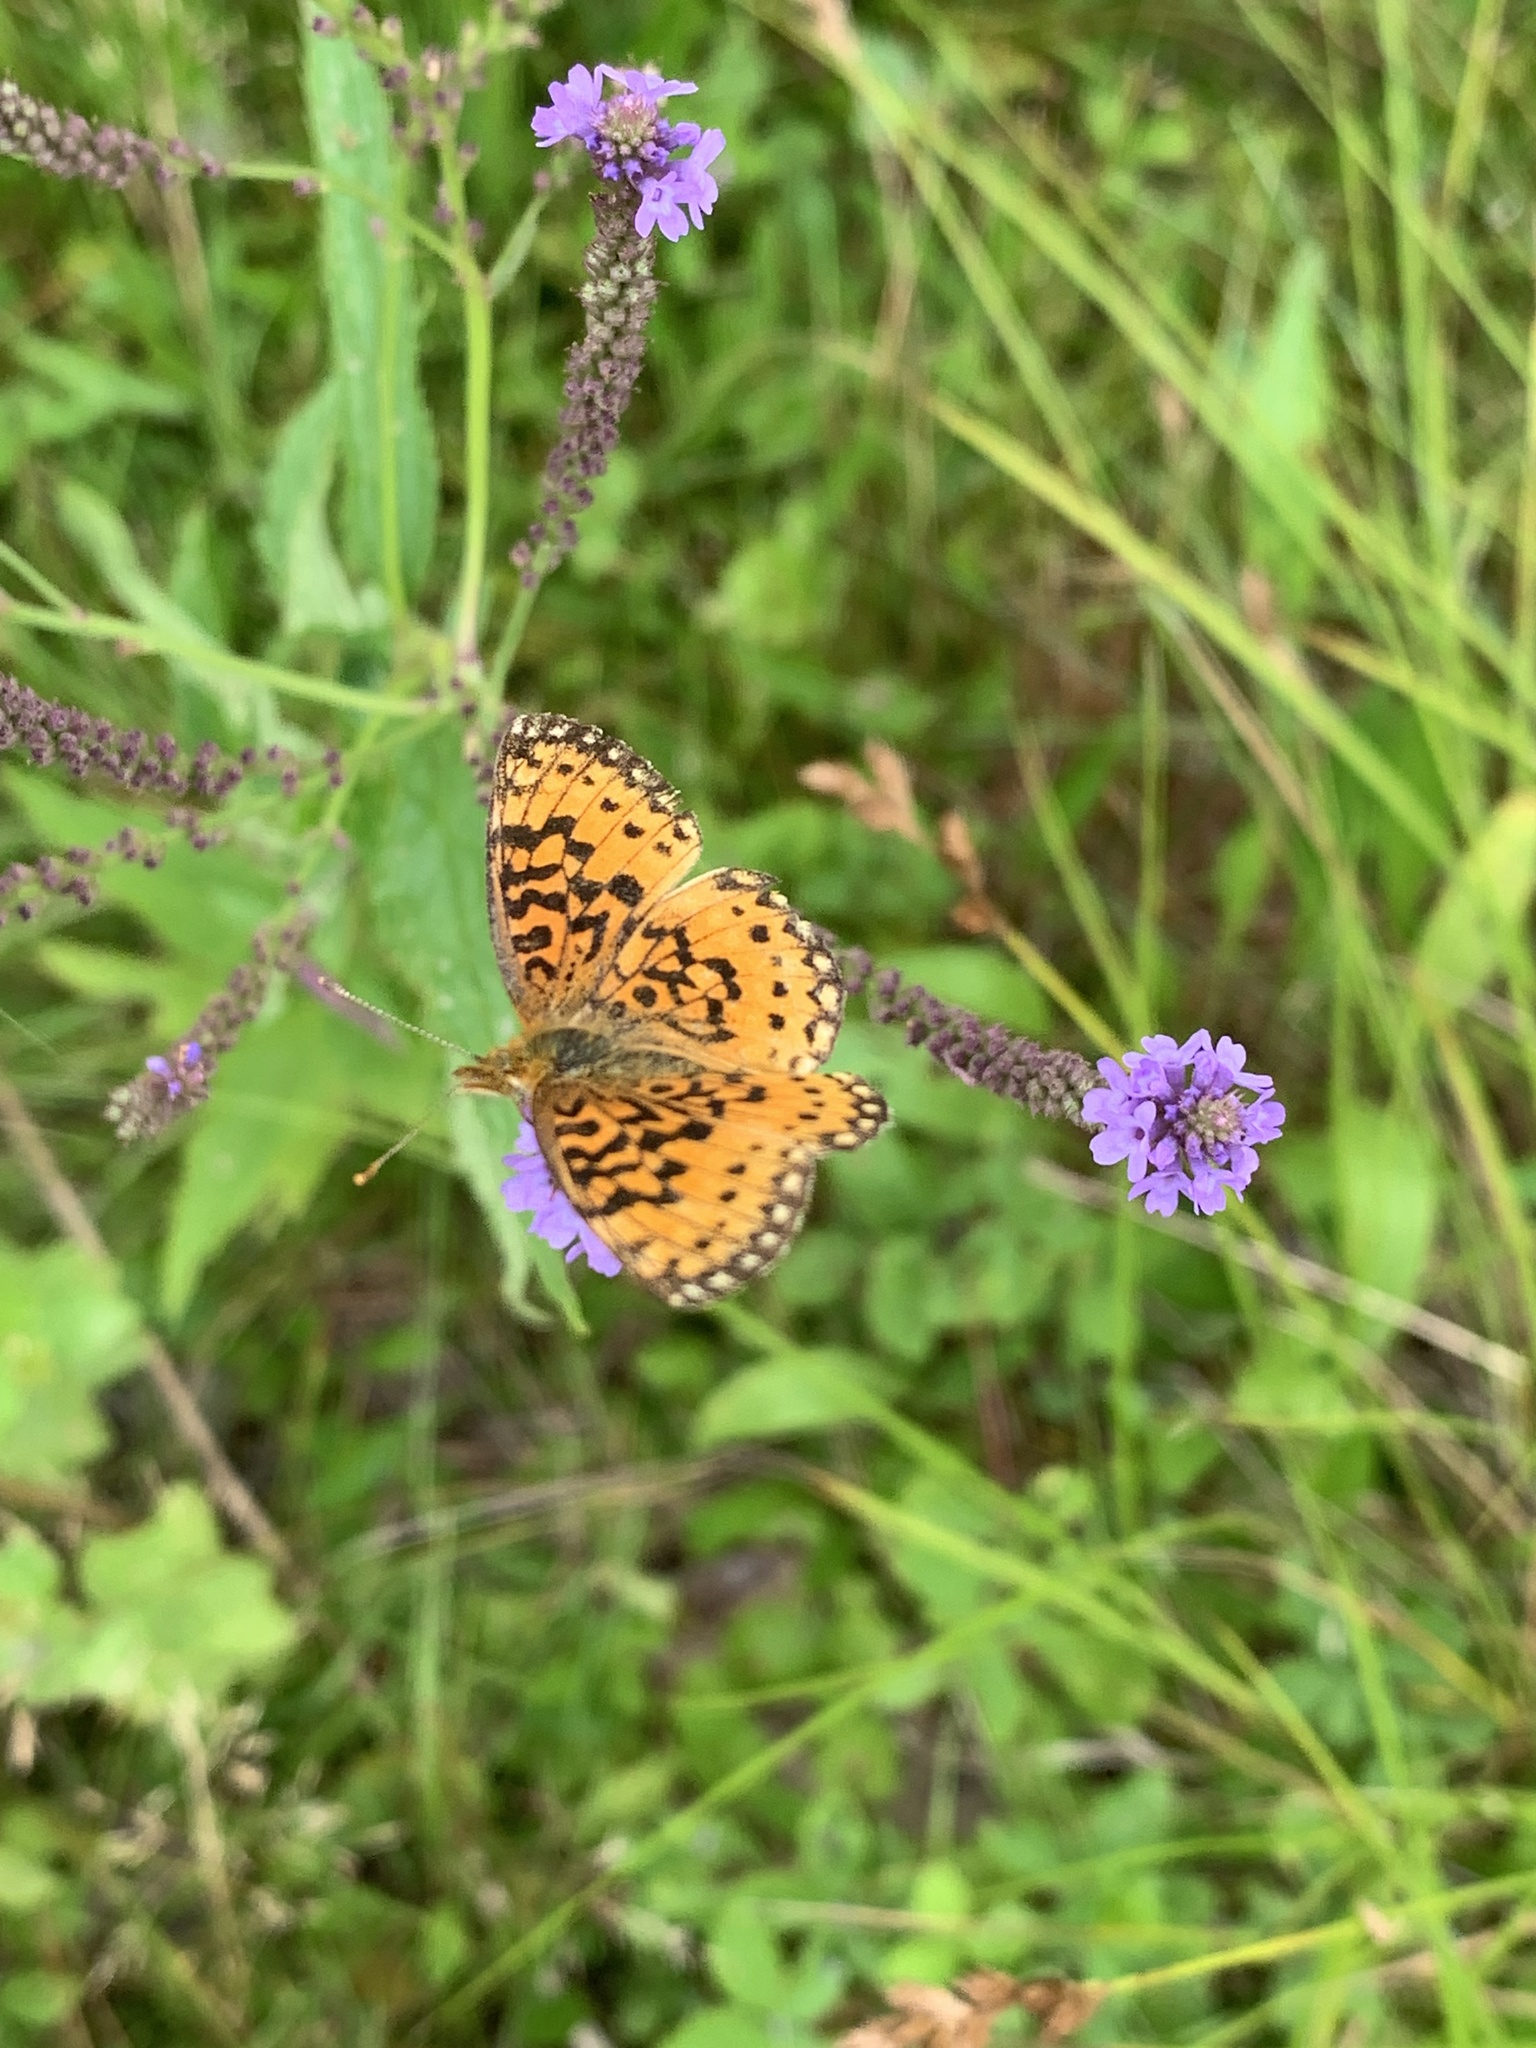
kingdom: Animalia
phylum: Arthropoda
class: Insecta
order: Lepidoptera
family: Nymphalidae
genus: Boloria
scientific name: Boloria
